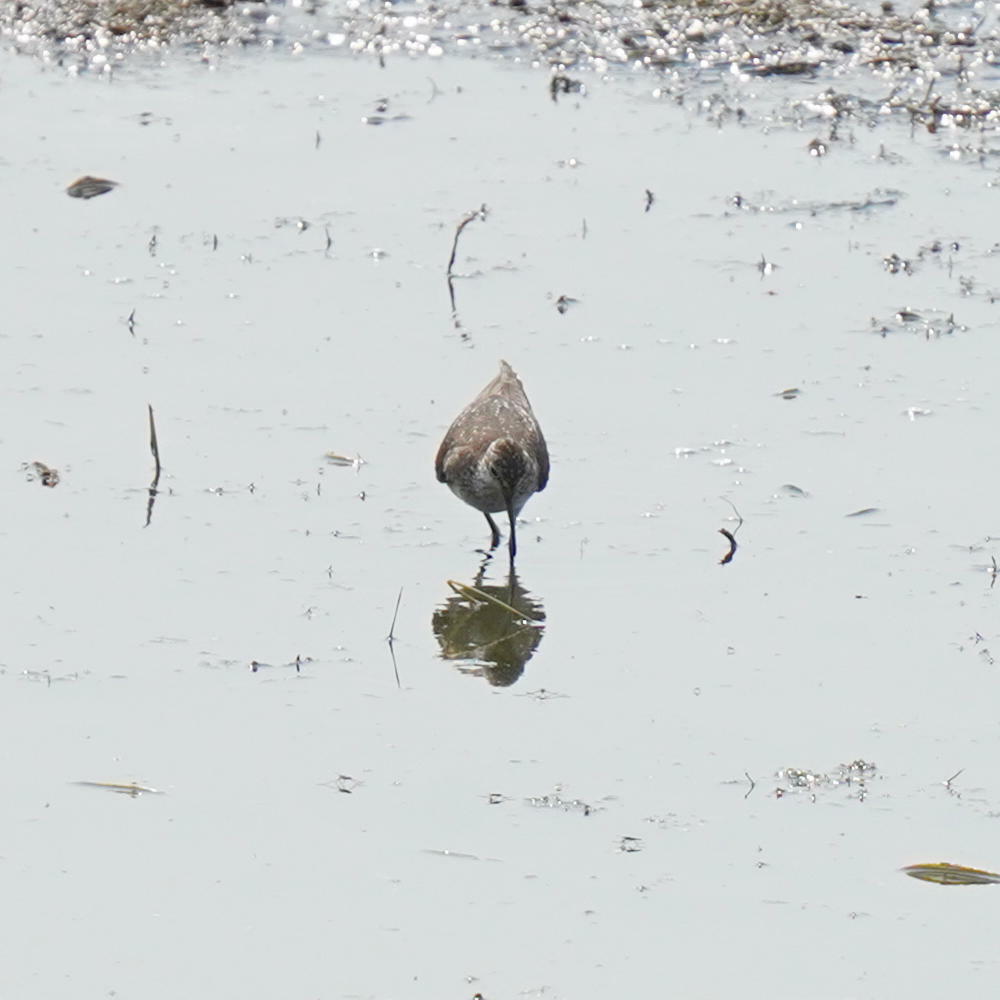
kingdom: Animalia
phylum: Chordata
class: Aves
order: Charadriiformes
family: Scolopacidae
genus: Tringa
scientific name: Tringa solitaria
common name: Solitary sandpiper
